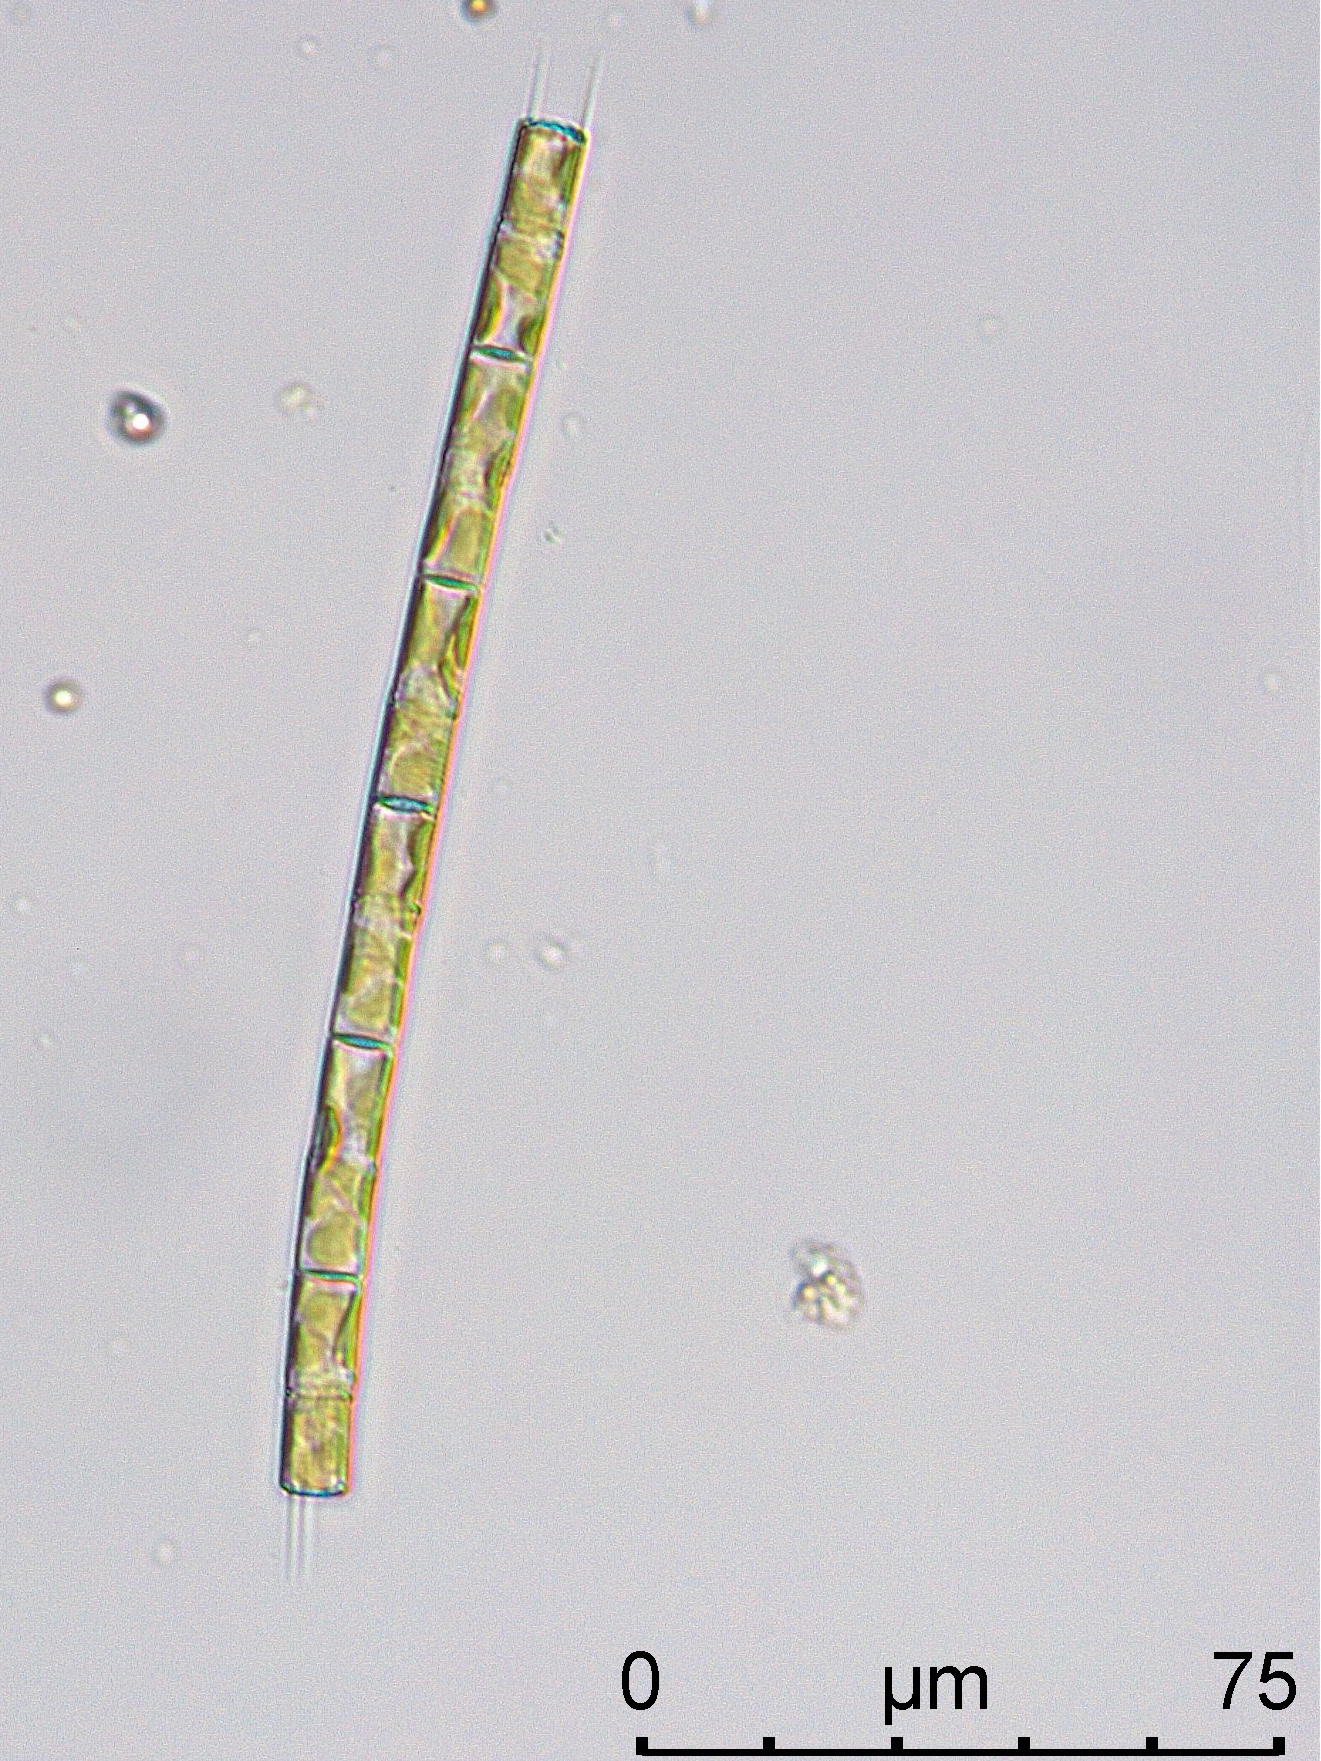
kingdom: Chromista
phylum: Ochrophyta
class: Bacillariophyceae
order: Aulacoseirales
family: Aulacoseiraceae
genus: Aulacoseira
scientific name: Aulacoseira granulata
